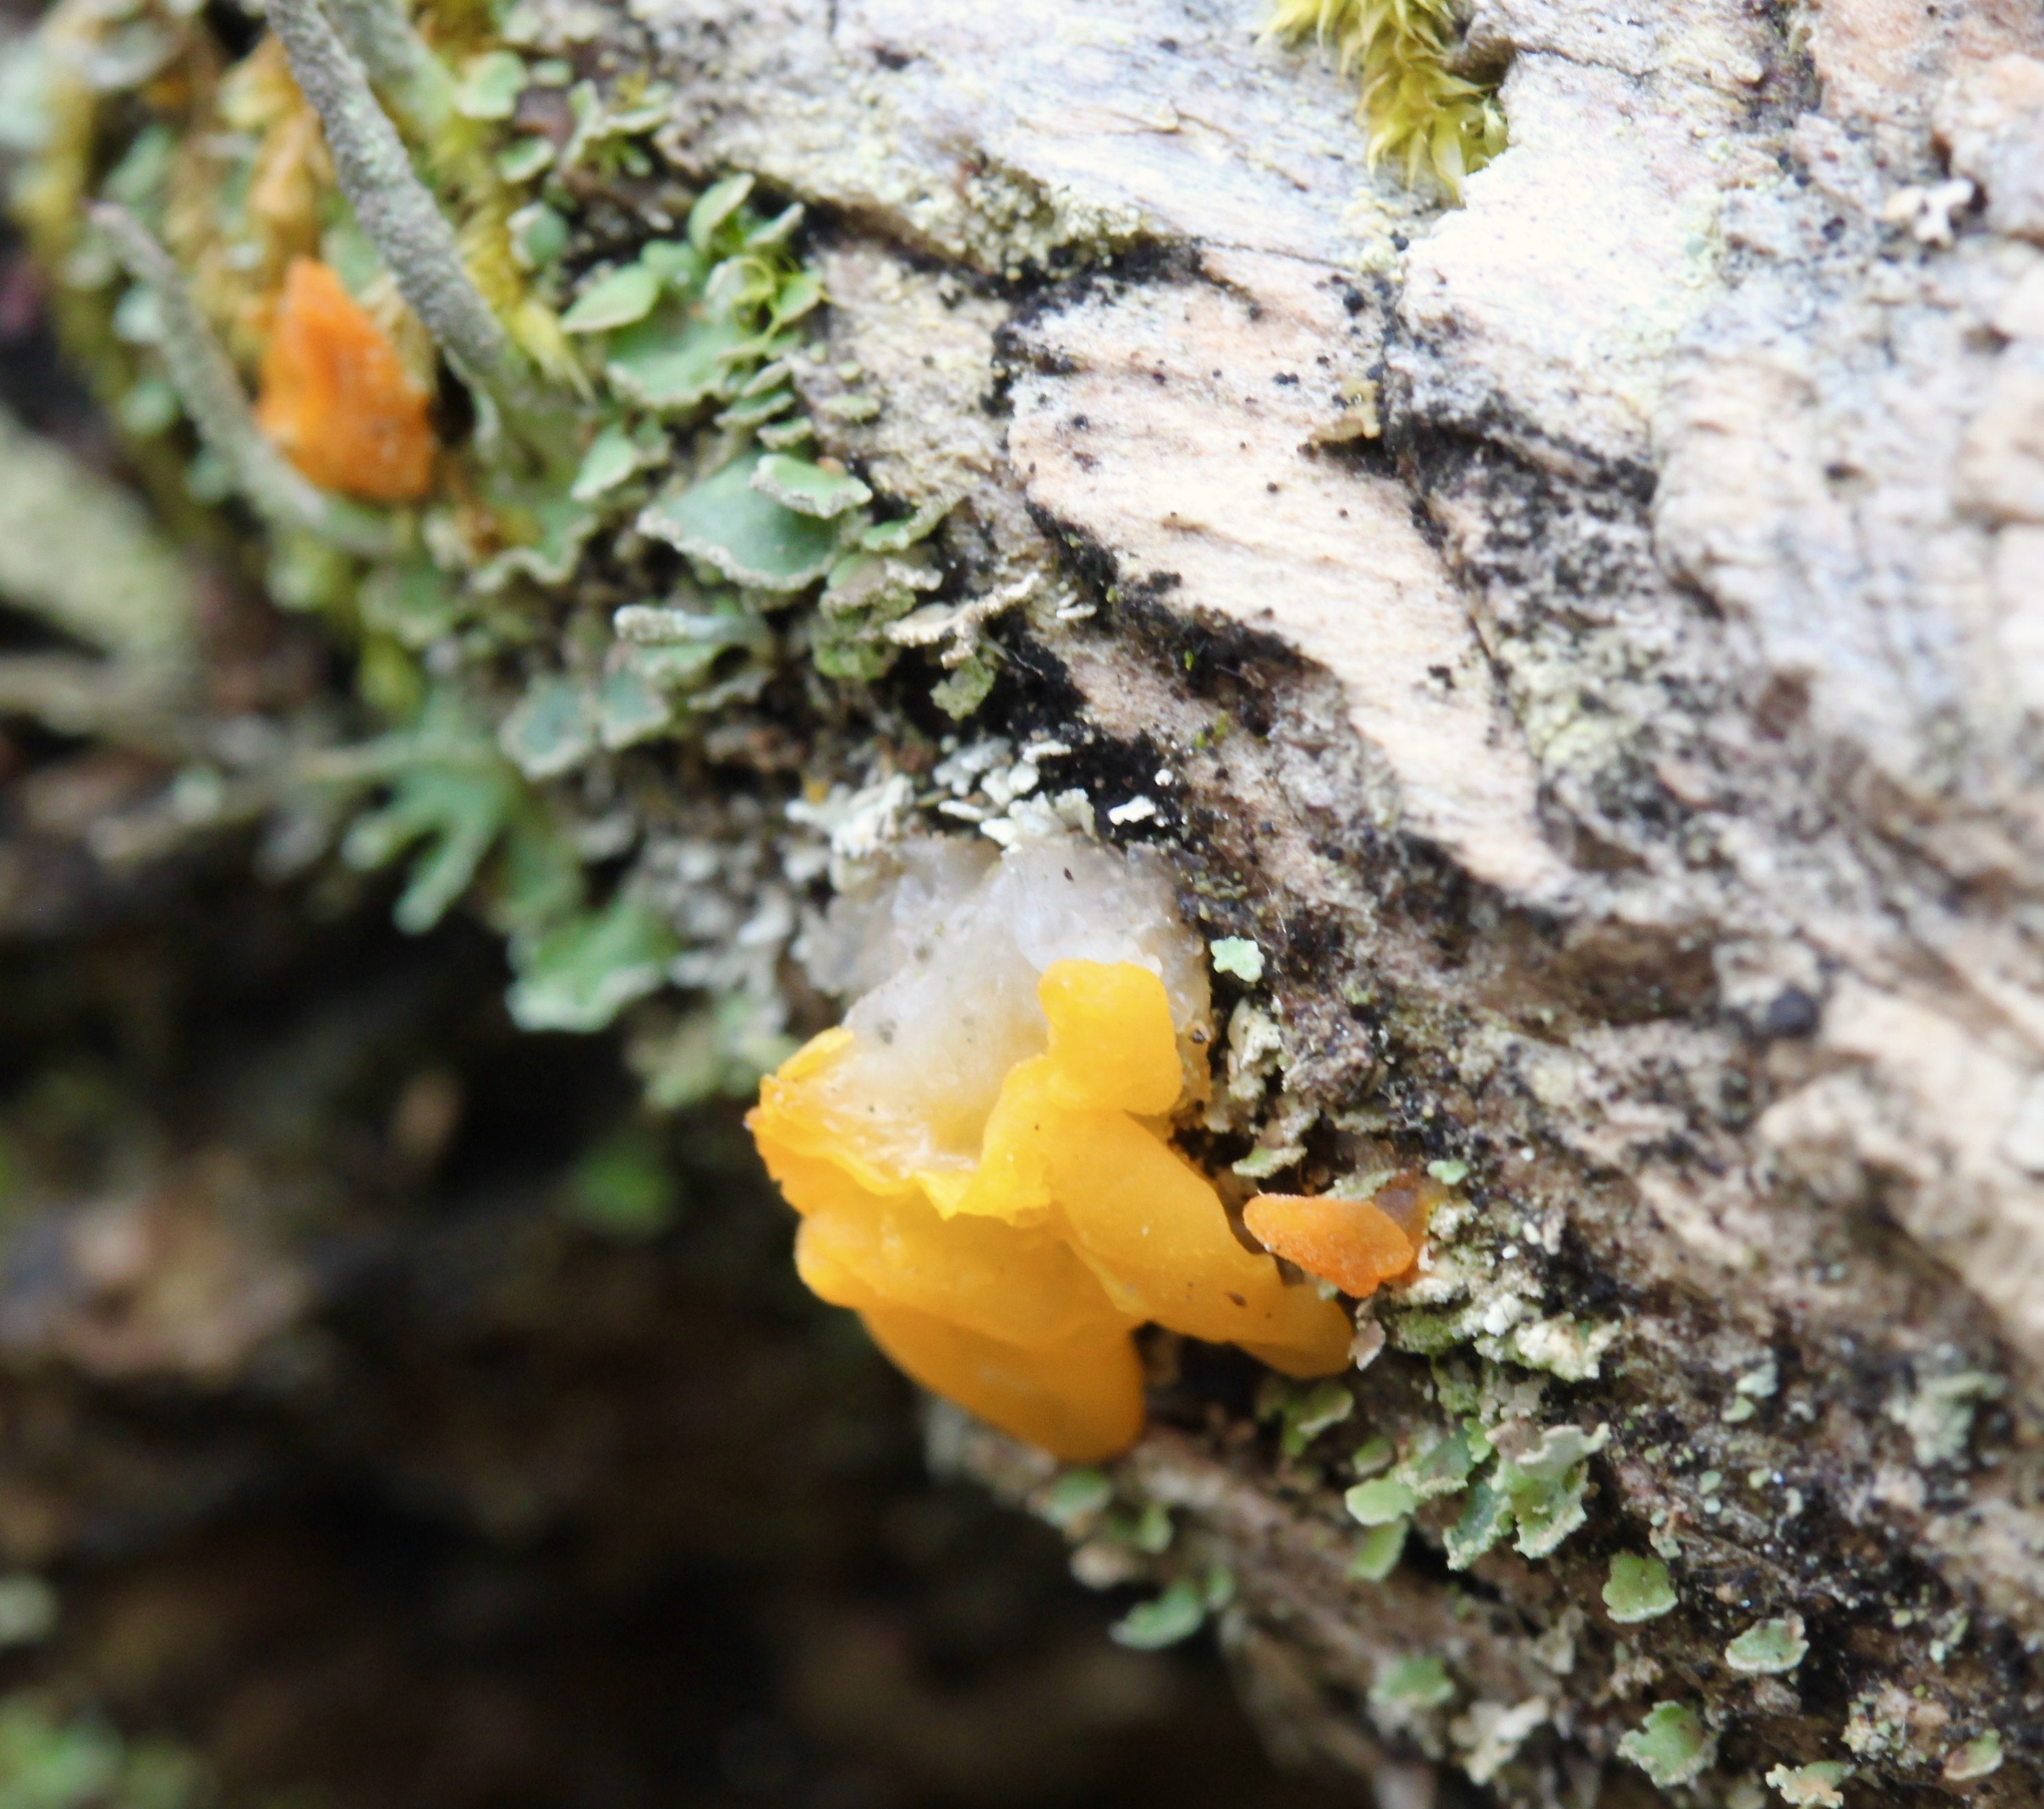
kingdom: Fungi
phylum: Basidiomycota
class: Dacrymycetes
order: Dacrymycetales
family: Dacrymycetaceae
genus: Dacrymyces
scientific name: Dacrymyces chrysospermus
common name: Orange jelly spot
